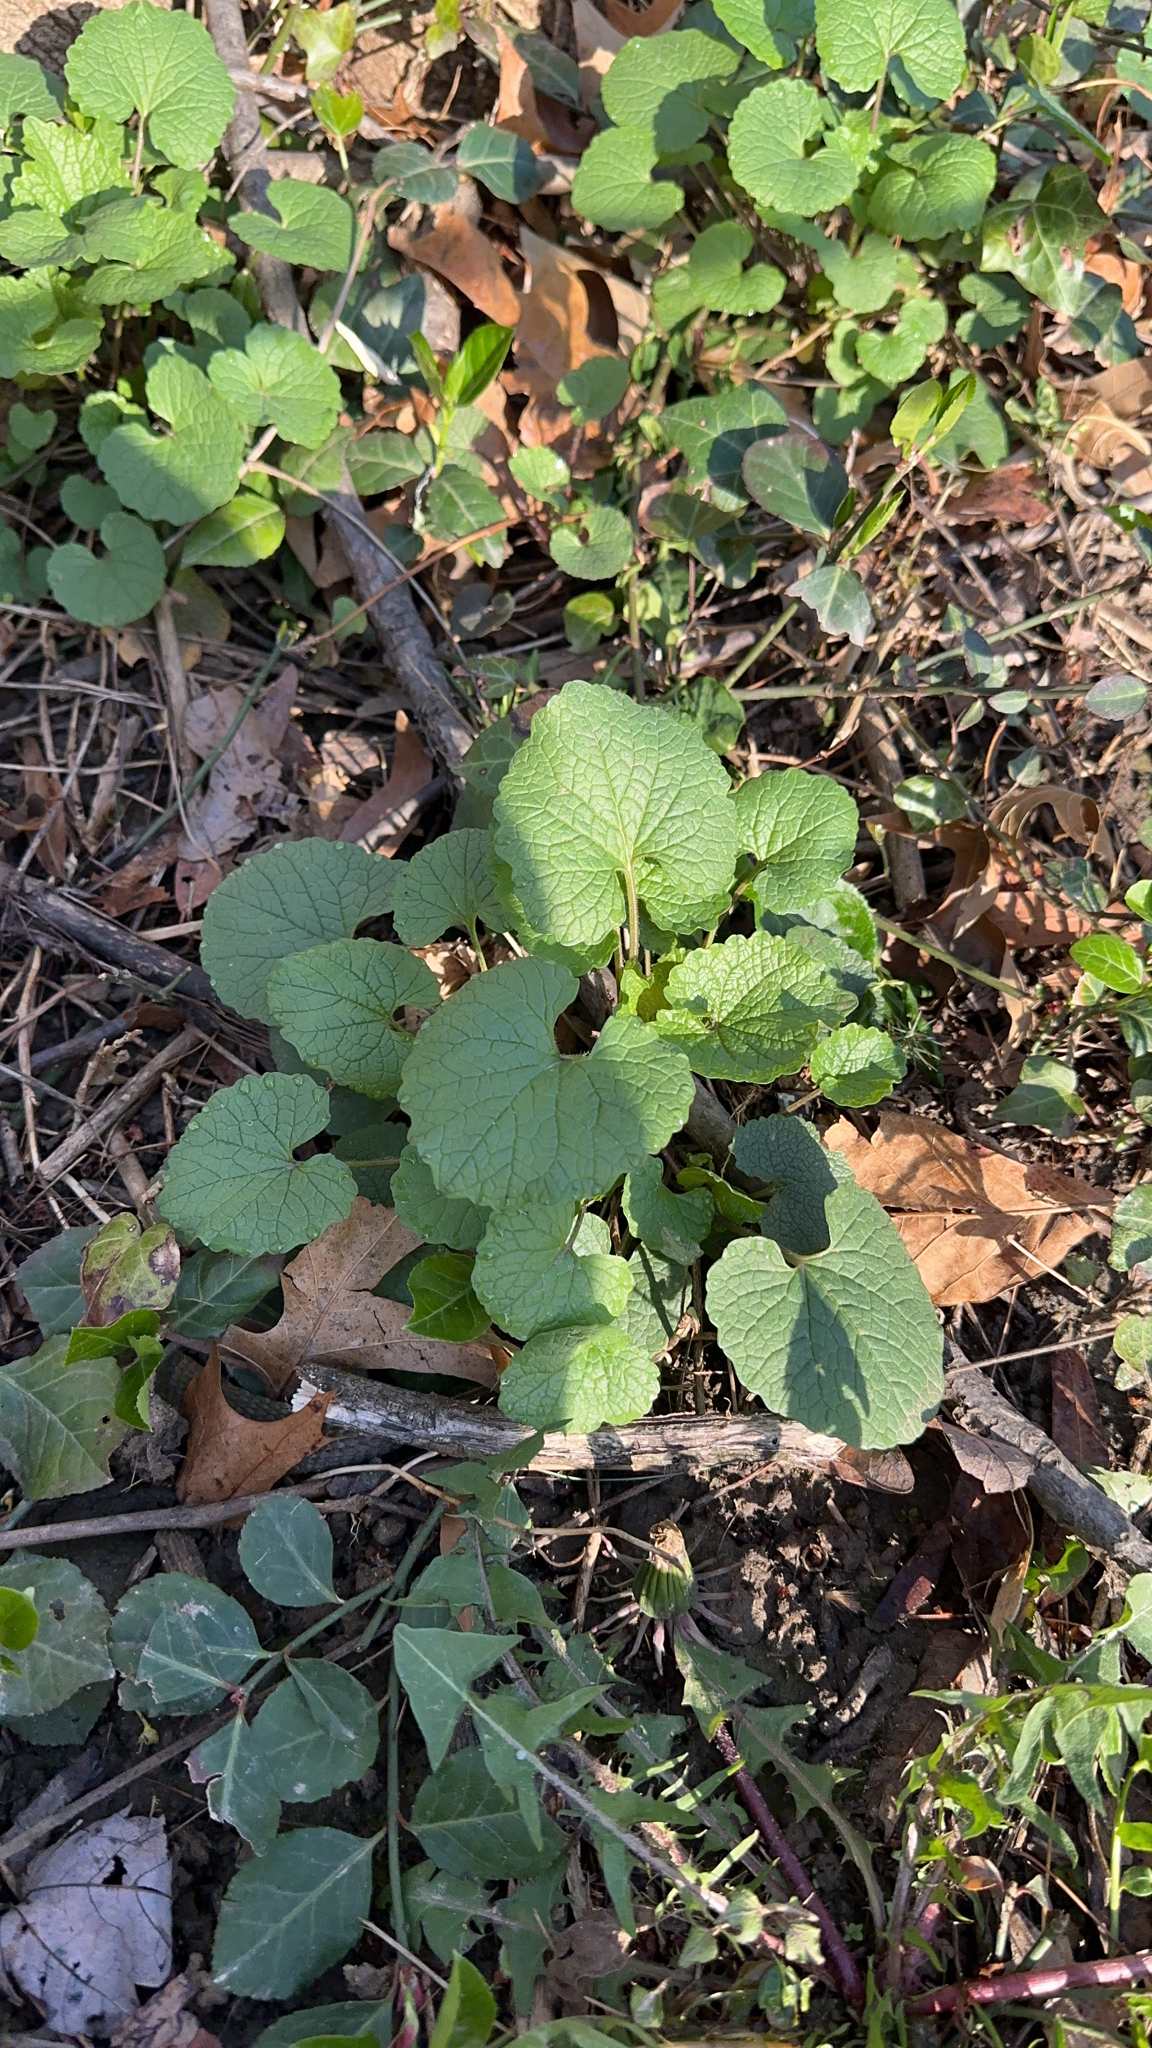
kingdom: Plantae
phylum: Tracheophyta
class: Magnoliopsida
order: Brassicales
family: Brassicaceae
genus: Alliaria
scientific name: Alliaria petiolata
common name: Garlic mustard
